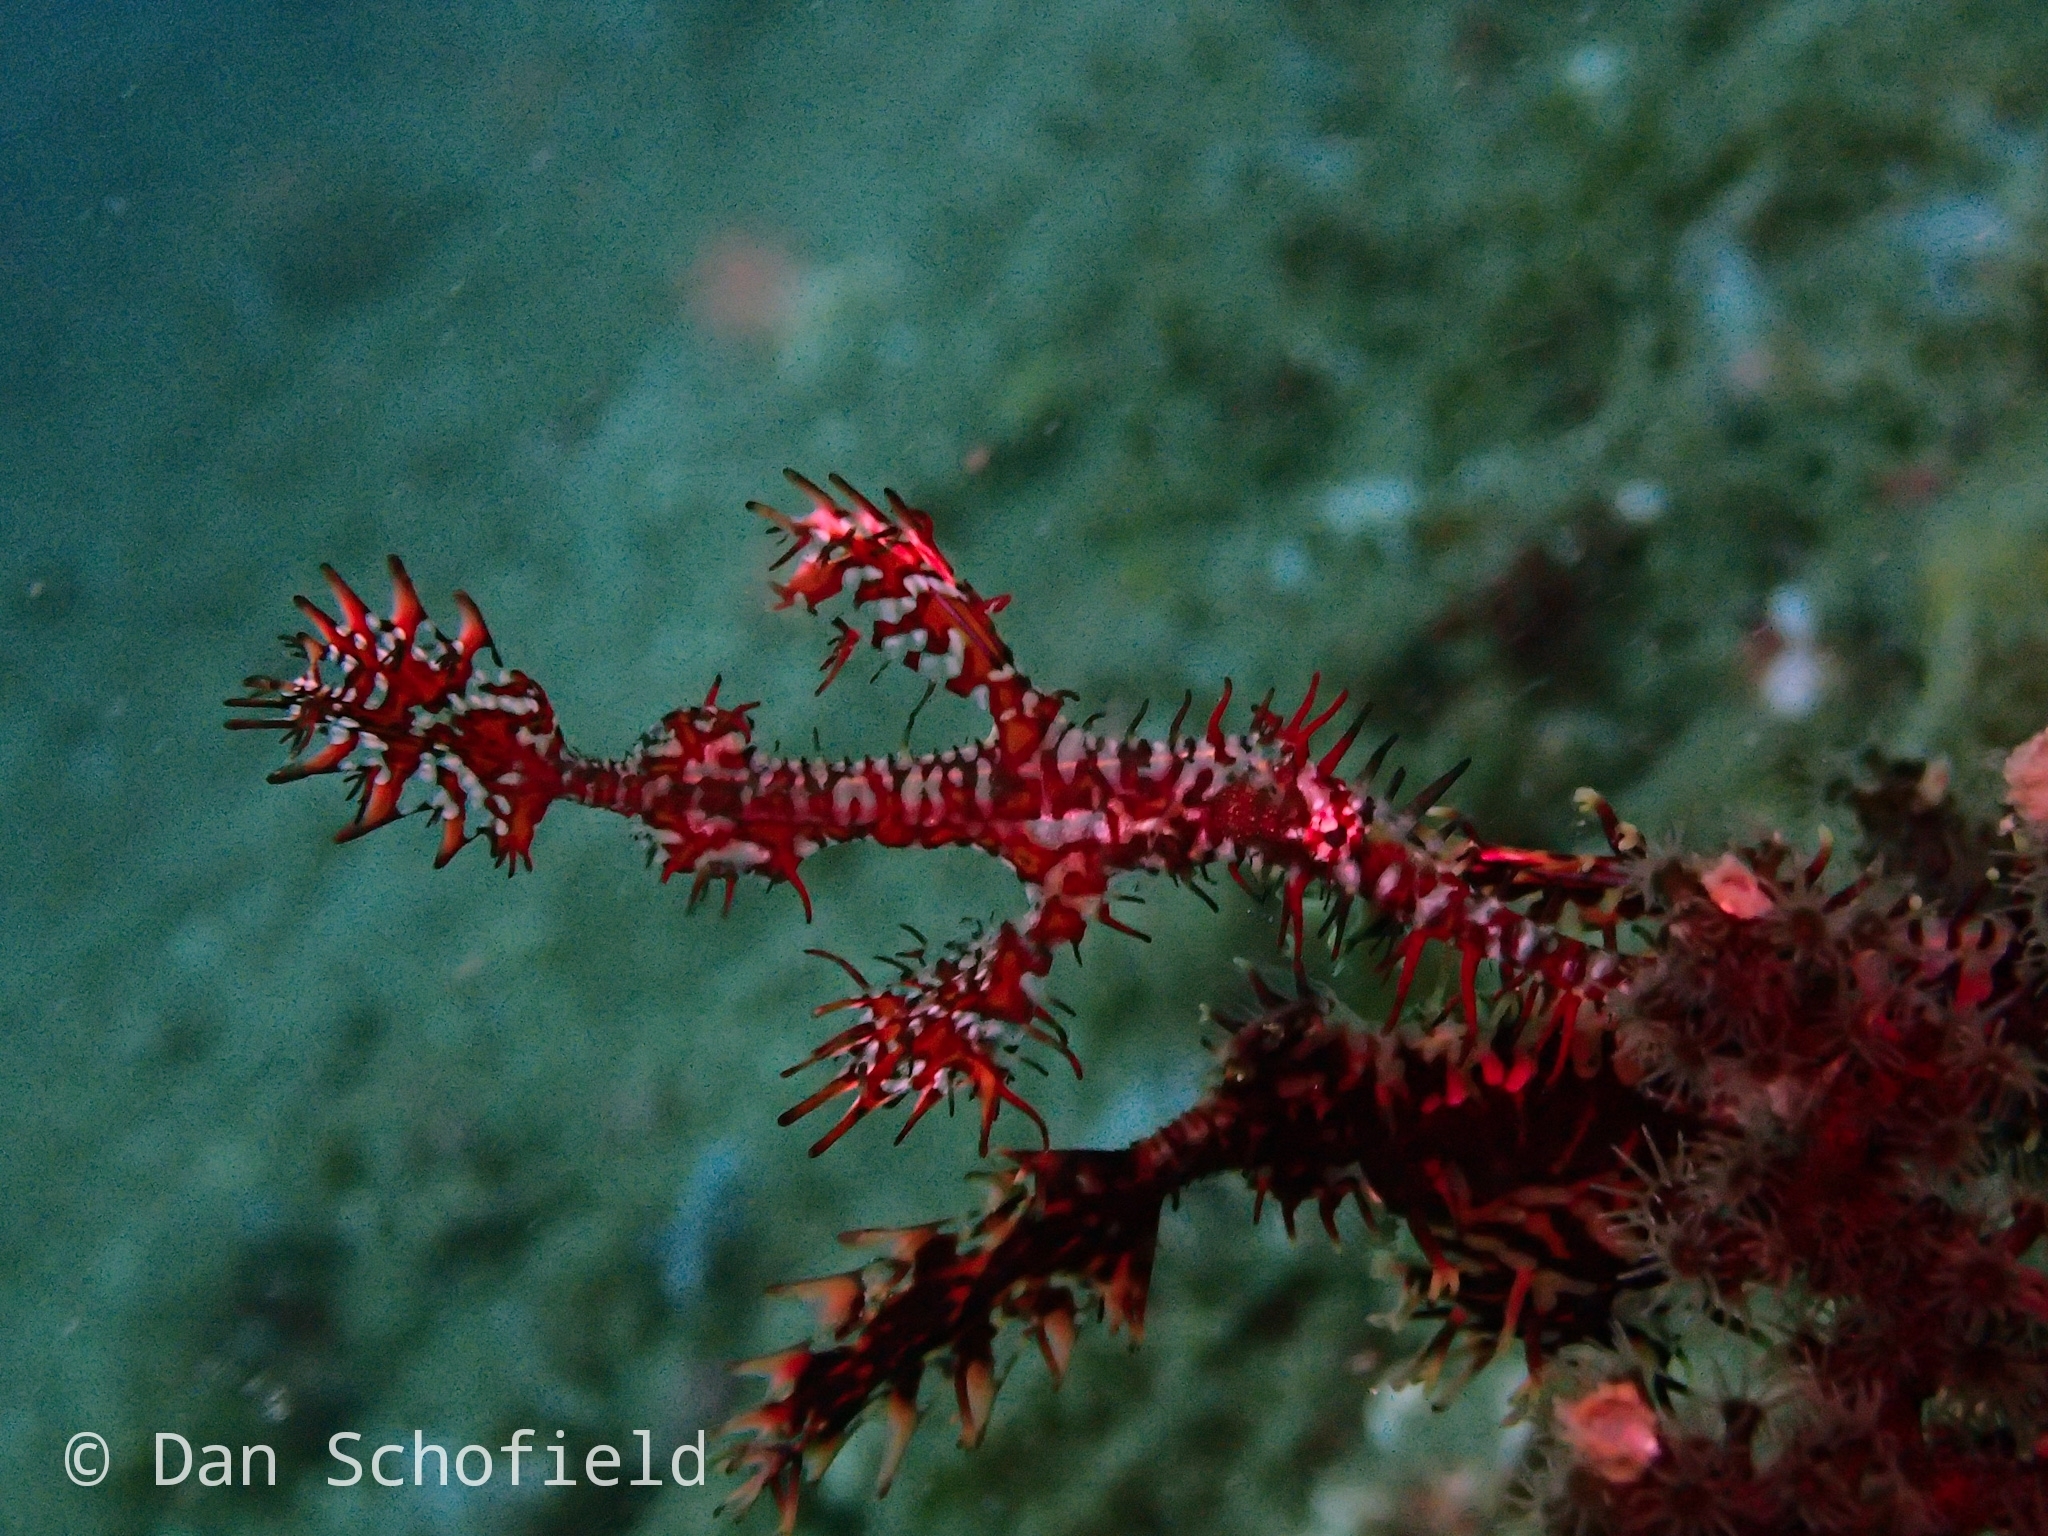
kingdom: Animalia
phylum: Chordata
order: Syngnathiformes
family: Solenostomidae
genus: Solenostomus
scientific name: Solenostomus paradoxus
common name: Ghost pipefish
